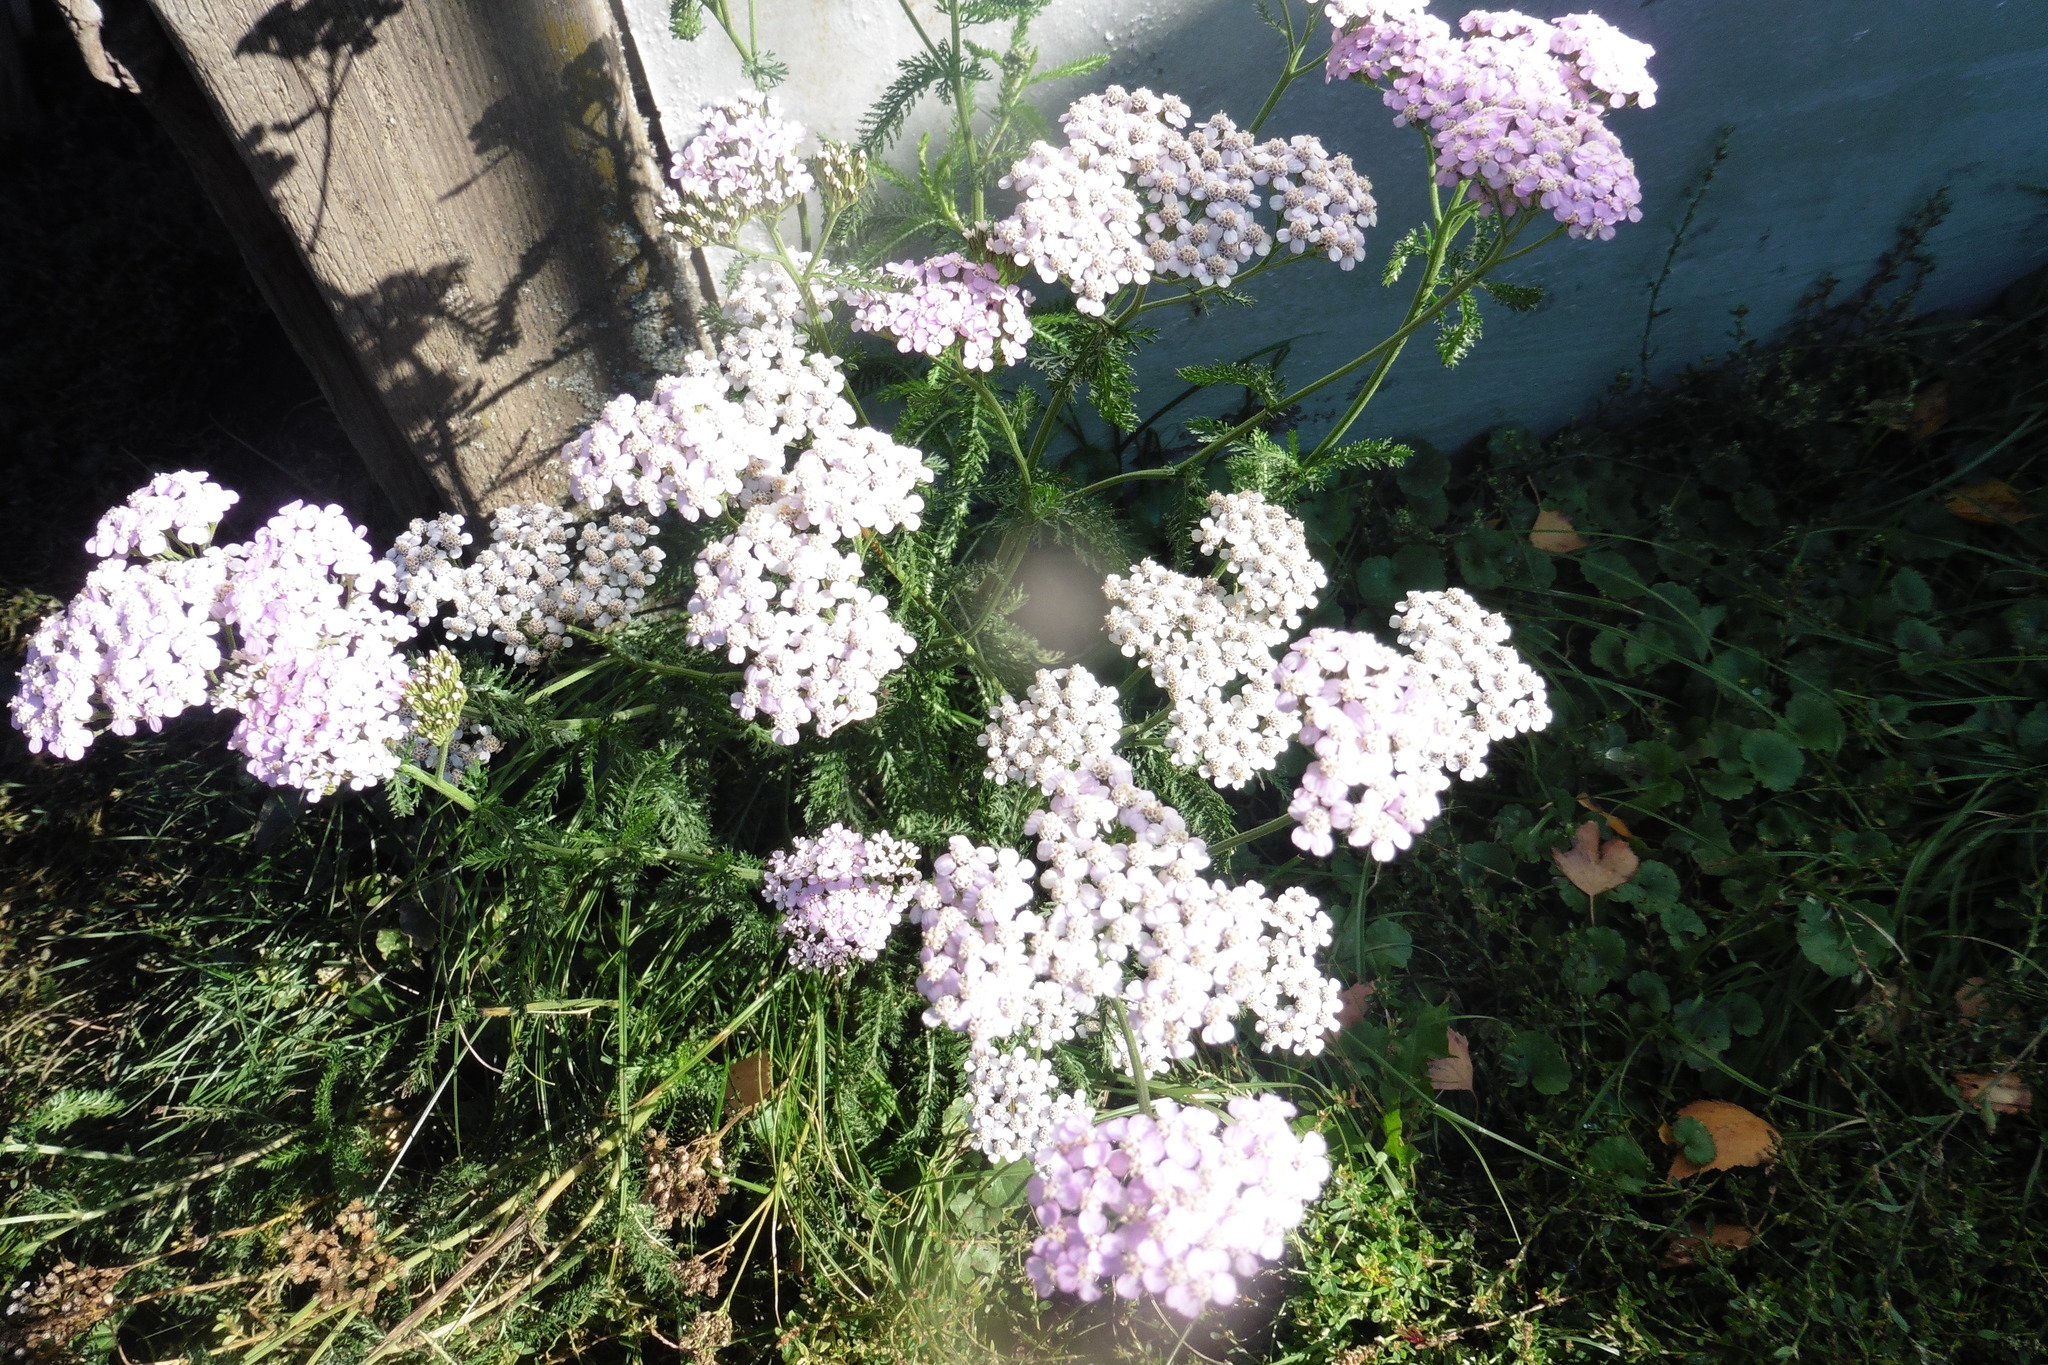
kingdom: Plantae
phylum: Tracheophyta
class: Magnoliopsida
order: Asterales
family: Asteraceae
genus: Achillea
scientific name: Achillea millefolium
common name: Yarrow
